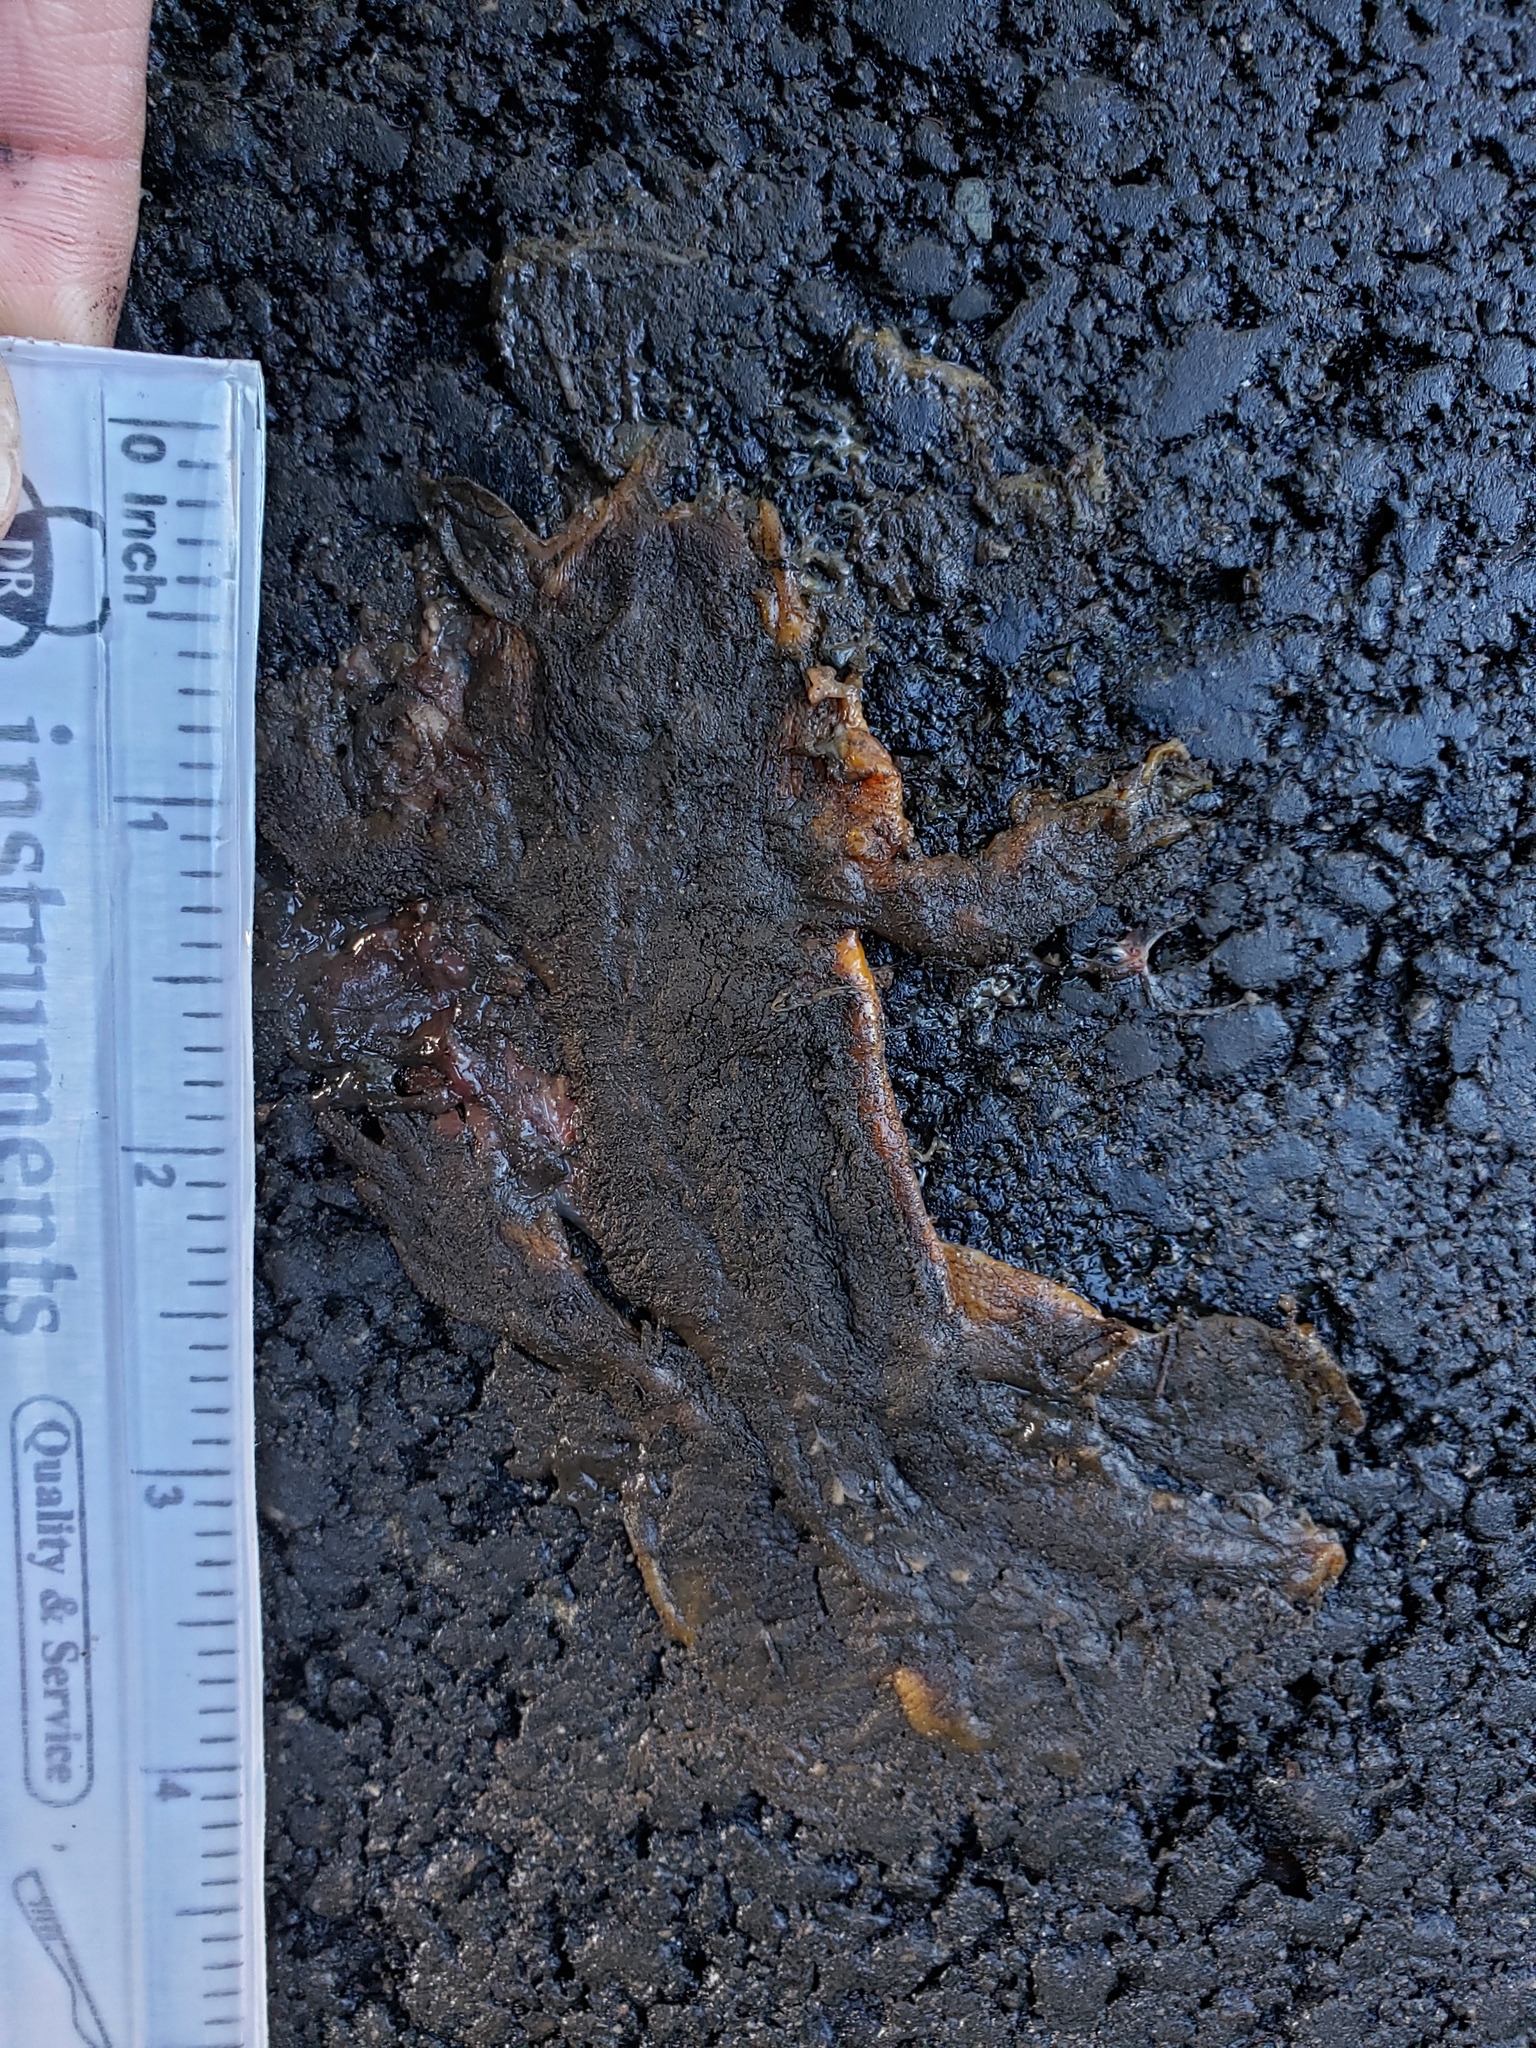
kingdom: Animalia
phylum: Chordata
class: Amphibia
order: Caudata
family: Salamandridae
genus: Taricha
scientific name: Taricha
